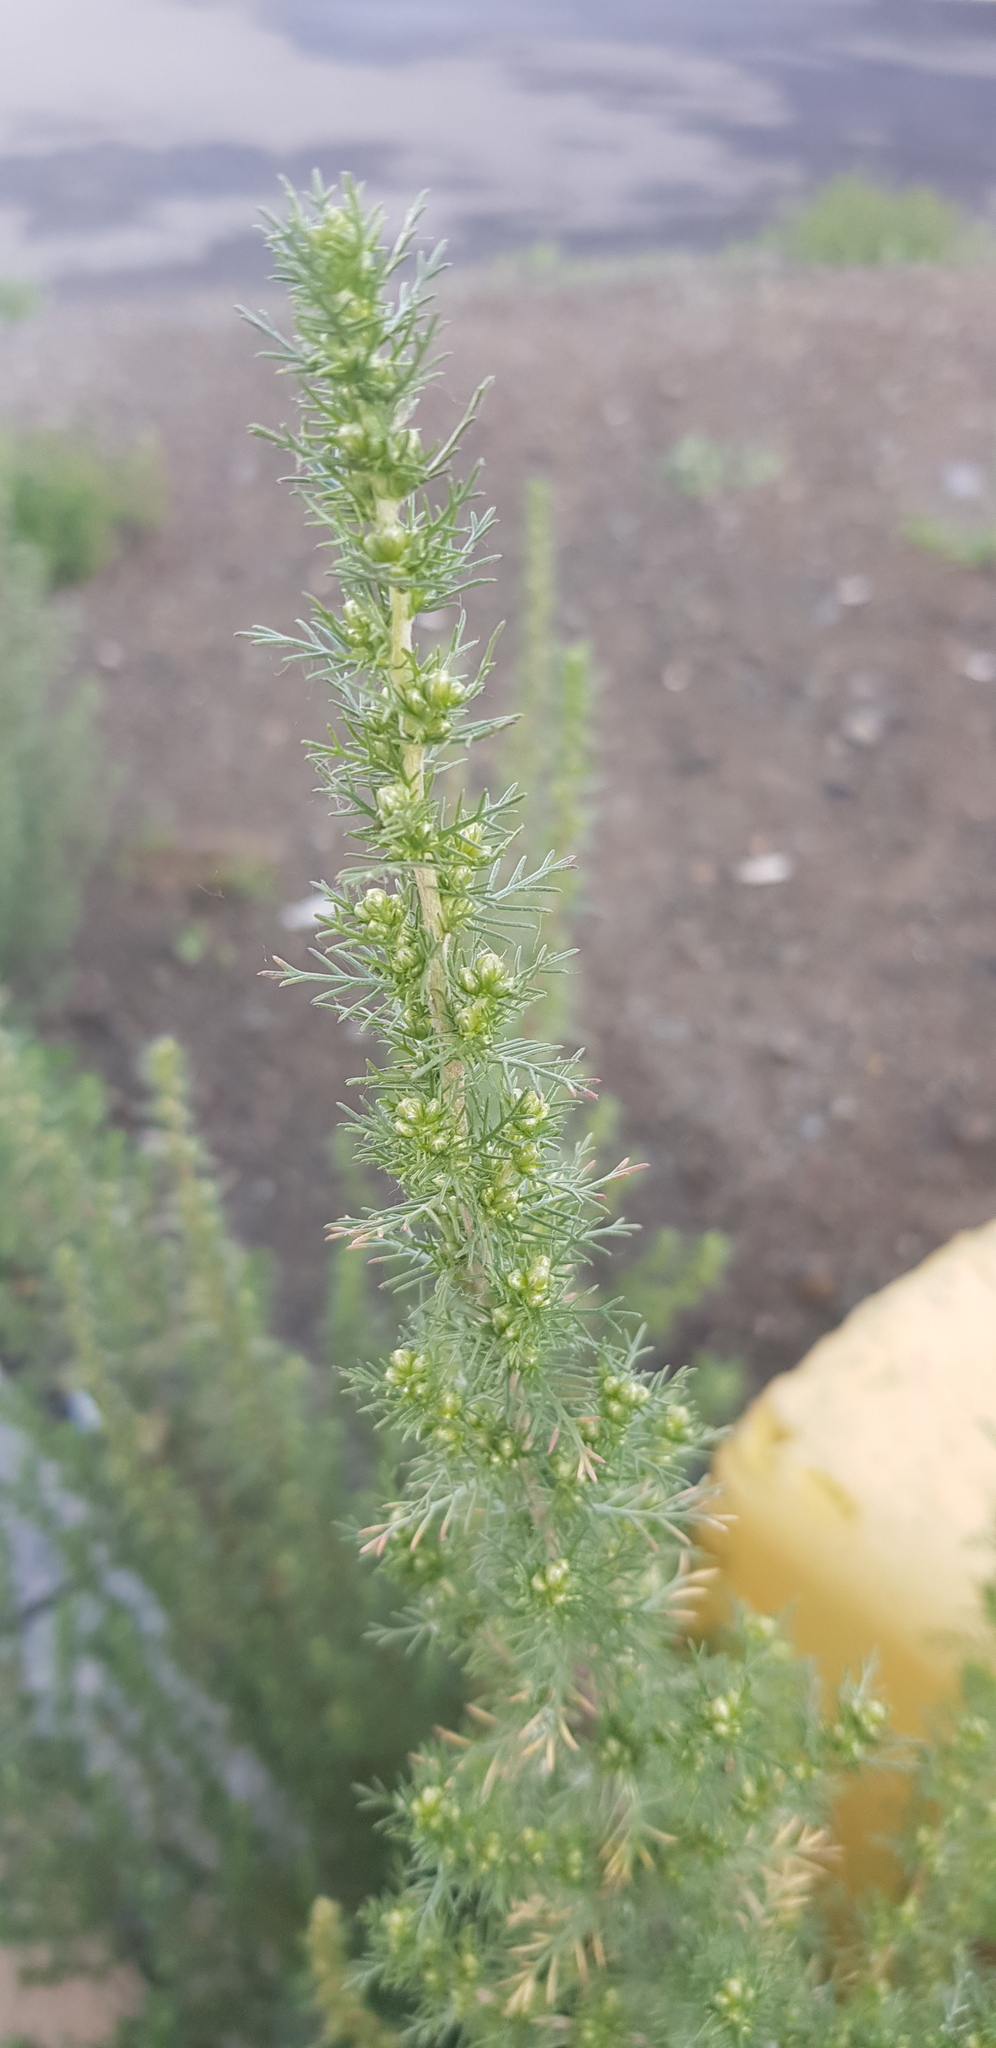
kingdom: Plantae
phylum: Tracheophyta
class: Magnoliopsida
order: Asterales
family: Asteraceae
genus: Neopallasia
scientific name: Neopallasia pectinata
